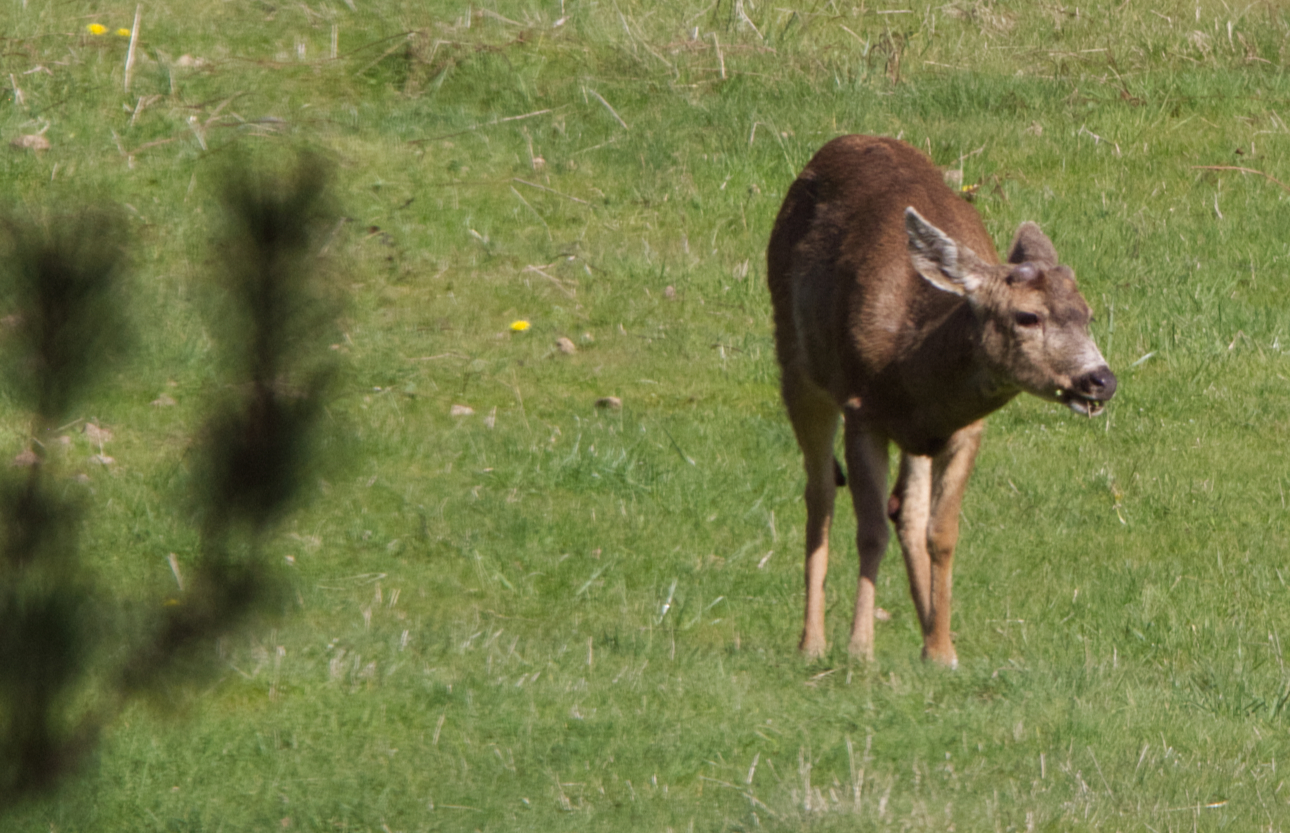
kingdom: Animalia
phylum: Chordata
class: Mammalia
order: Artiodactyla
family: Cervidae
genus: Odocoileus
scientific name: Odocoileus hemionus
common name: Mule deer
